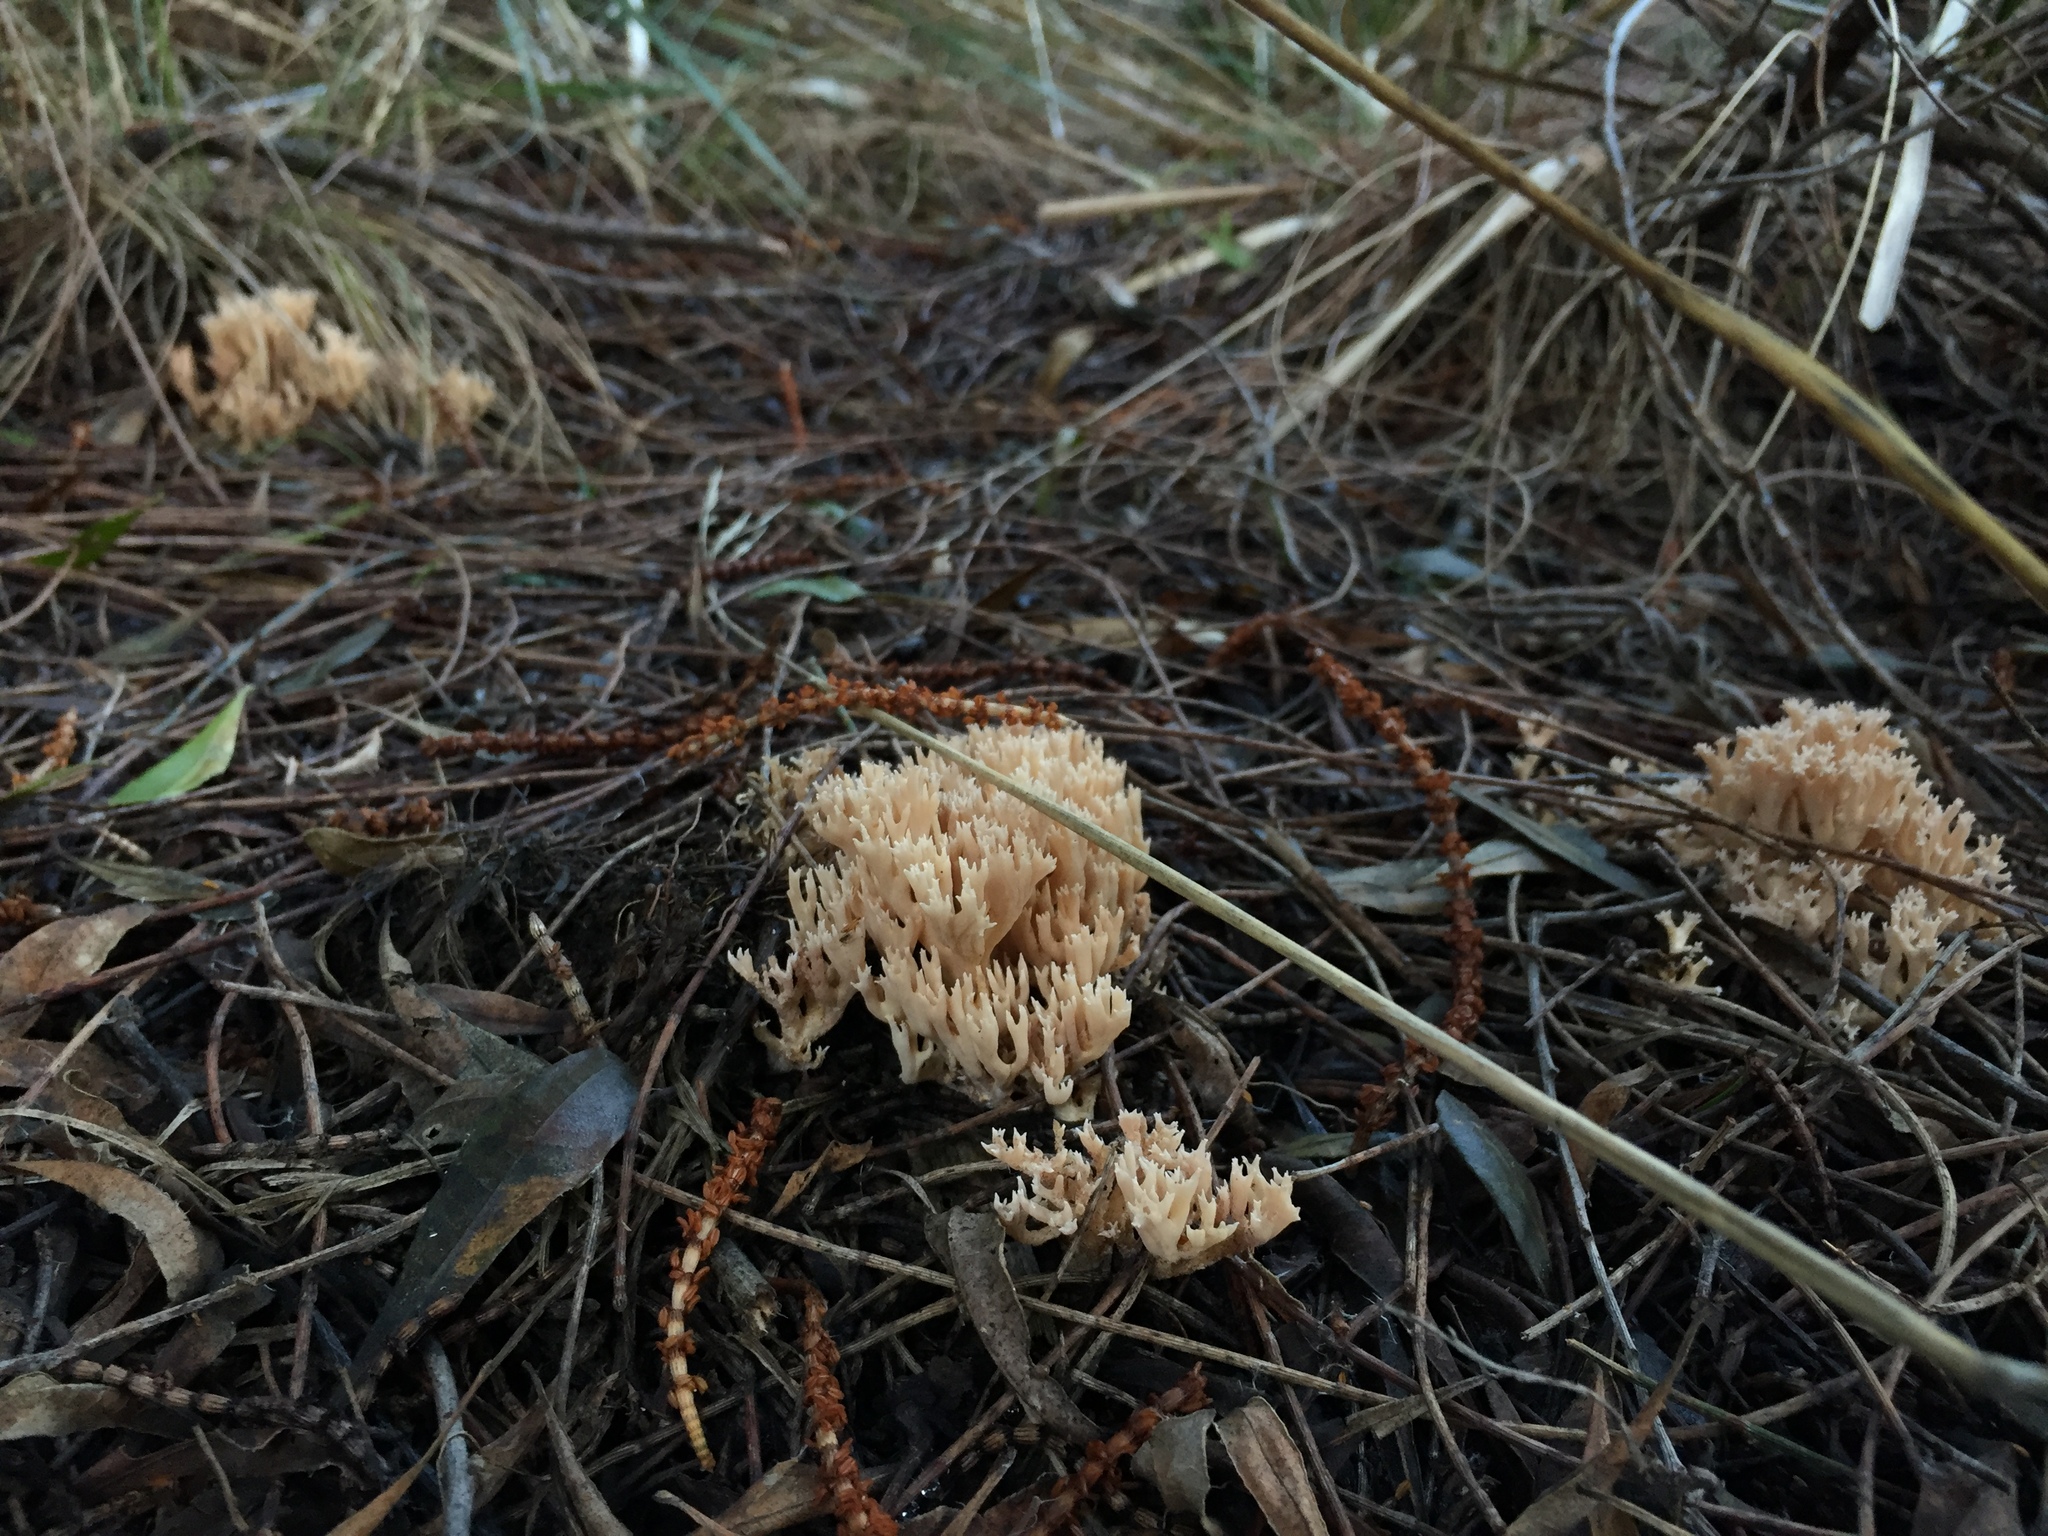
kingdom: Fungi
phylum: Basidiomycota
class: Agaricomycetes
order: Gomphales
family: Gomphaceae
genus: Ramaria
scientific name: Ramaria filicicola
